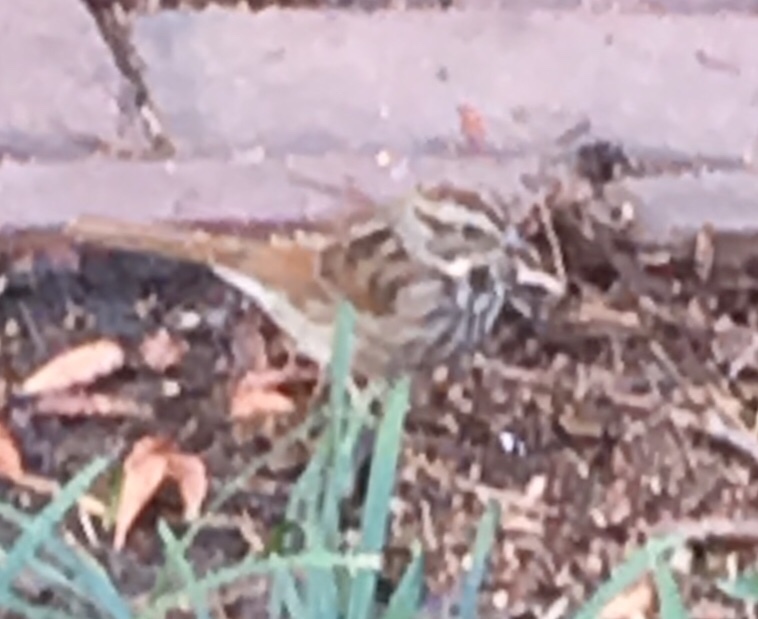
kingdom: Animalia
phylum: Chordata
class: Aves
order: Passeriformes
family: Passerellidae
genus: Melospiza
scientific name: Melospiza melodia
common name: Song sparrow
